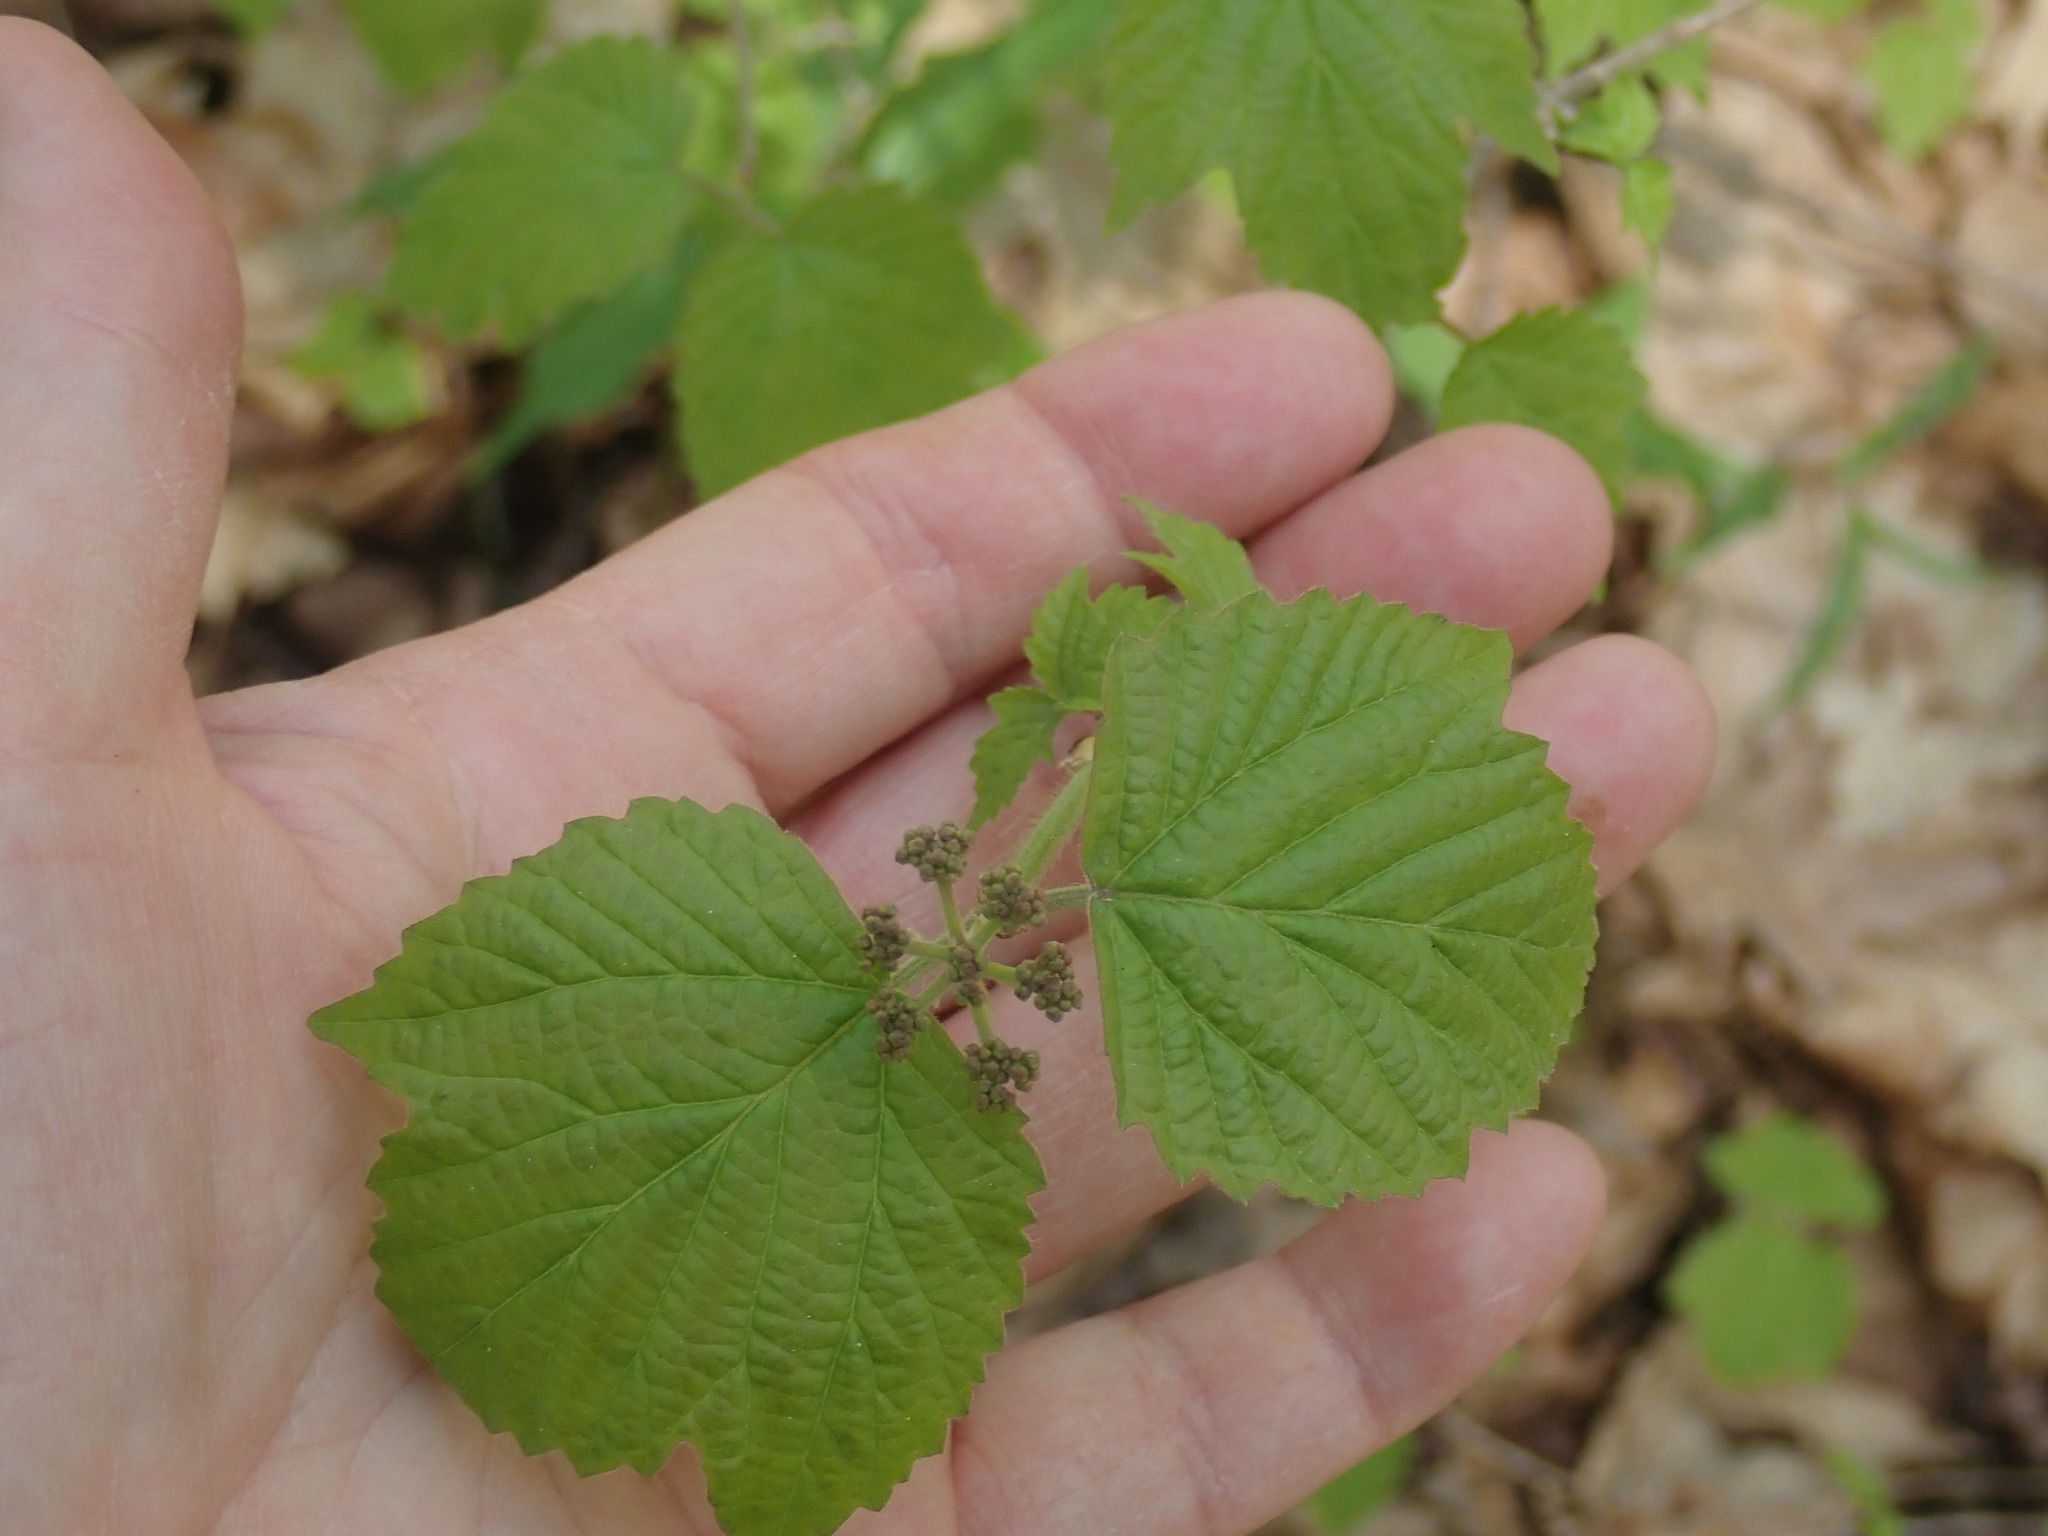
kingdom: Plantae
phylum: Tracheophyta
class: Magnoliopsida
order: Dipsacales
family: Viburnaceae
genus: Viburnum
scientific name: Viburnum acerifolium
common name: Dockmackie
